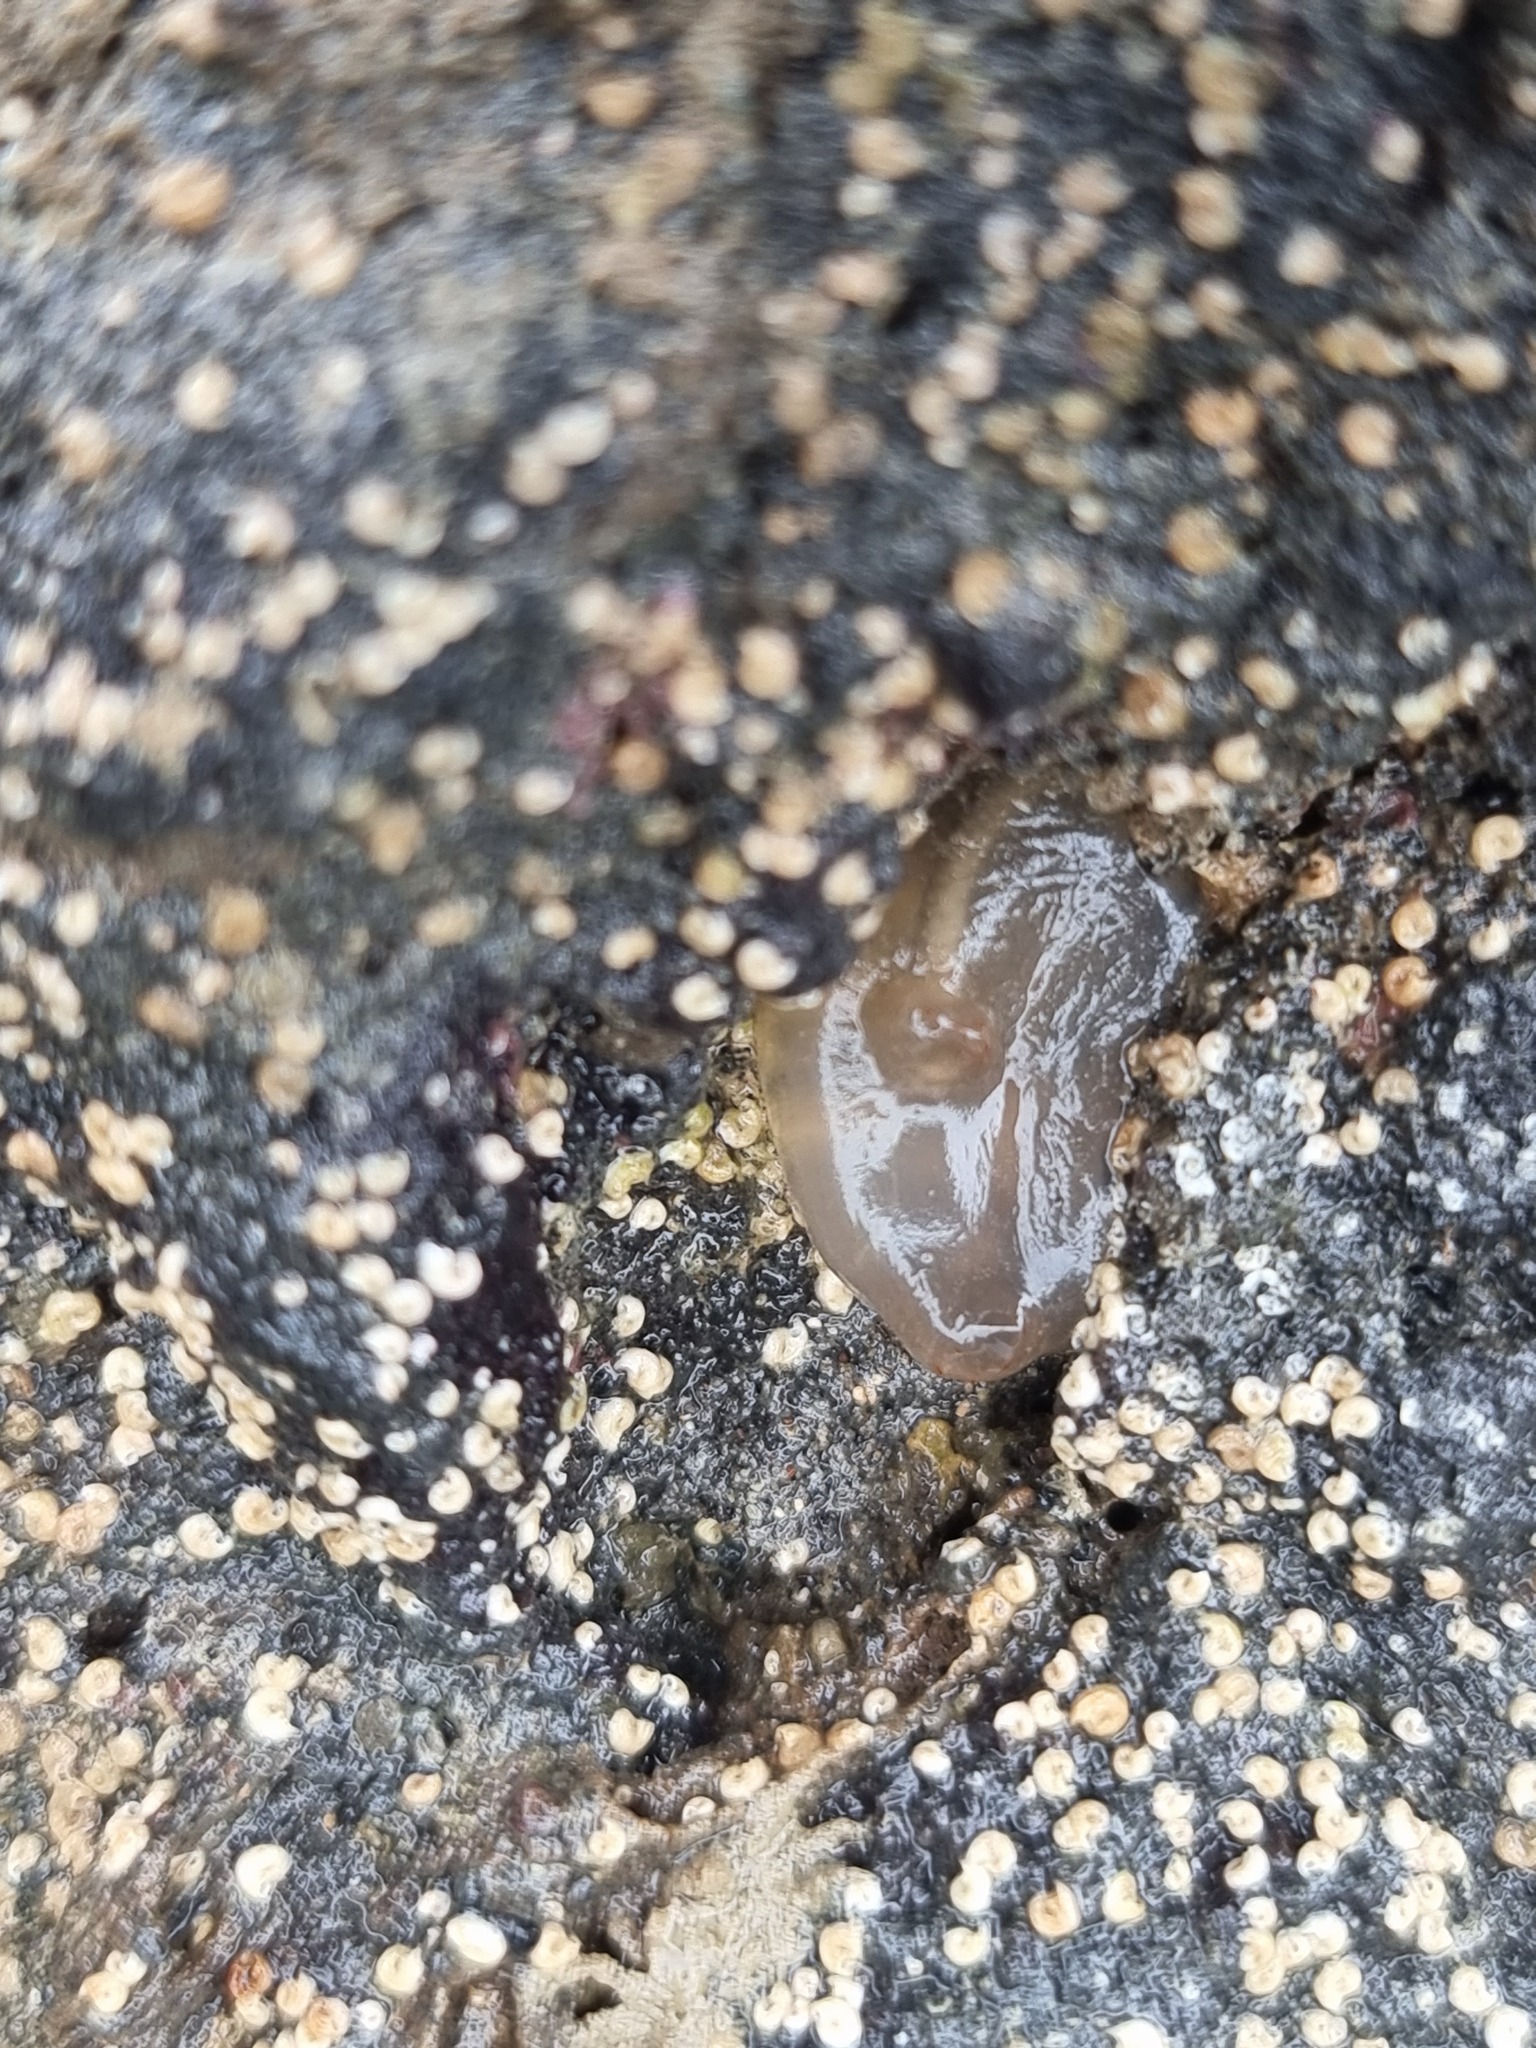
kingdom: Animalia
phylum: Chordata
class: Ascidiacea
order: Phlebobranchia
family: Corellidae
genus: Corella
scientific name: Corella eumyota
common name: Orange-tipped sea squirt
